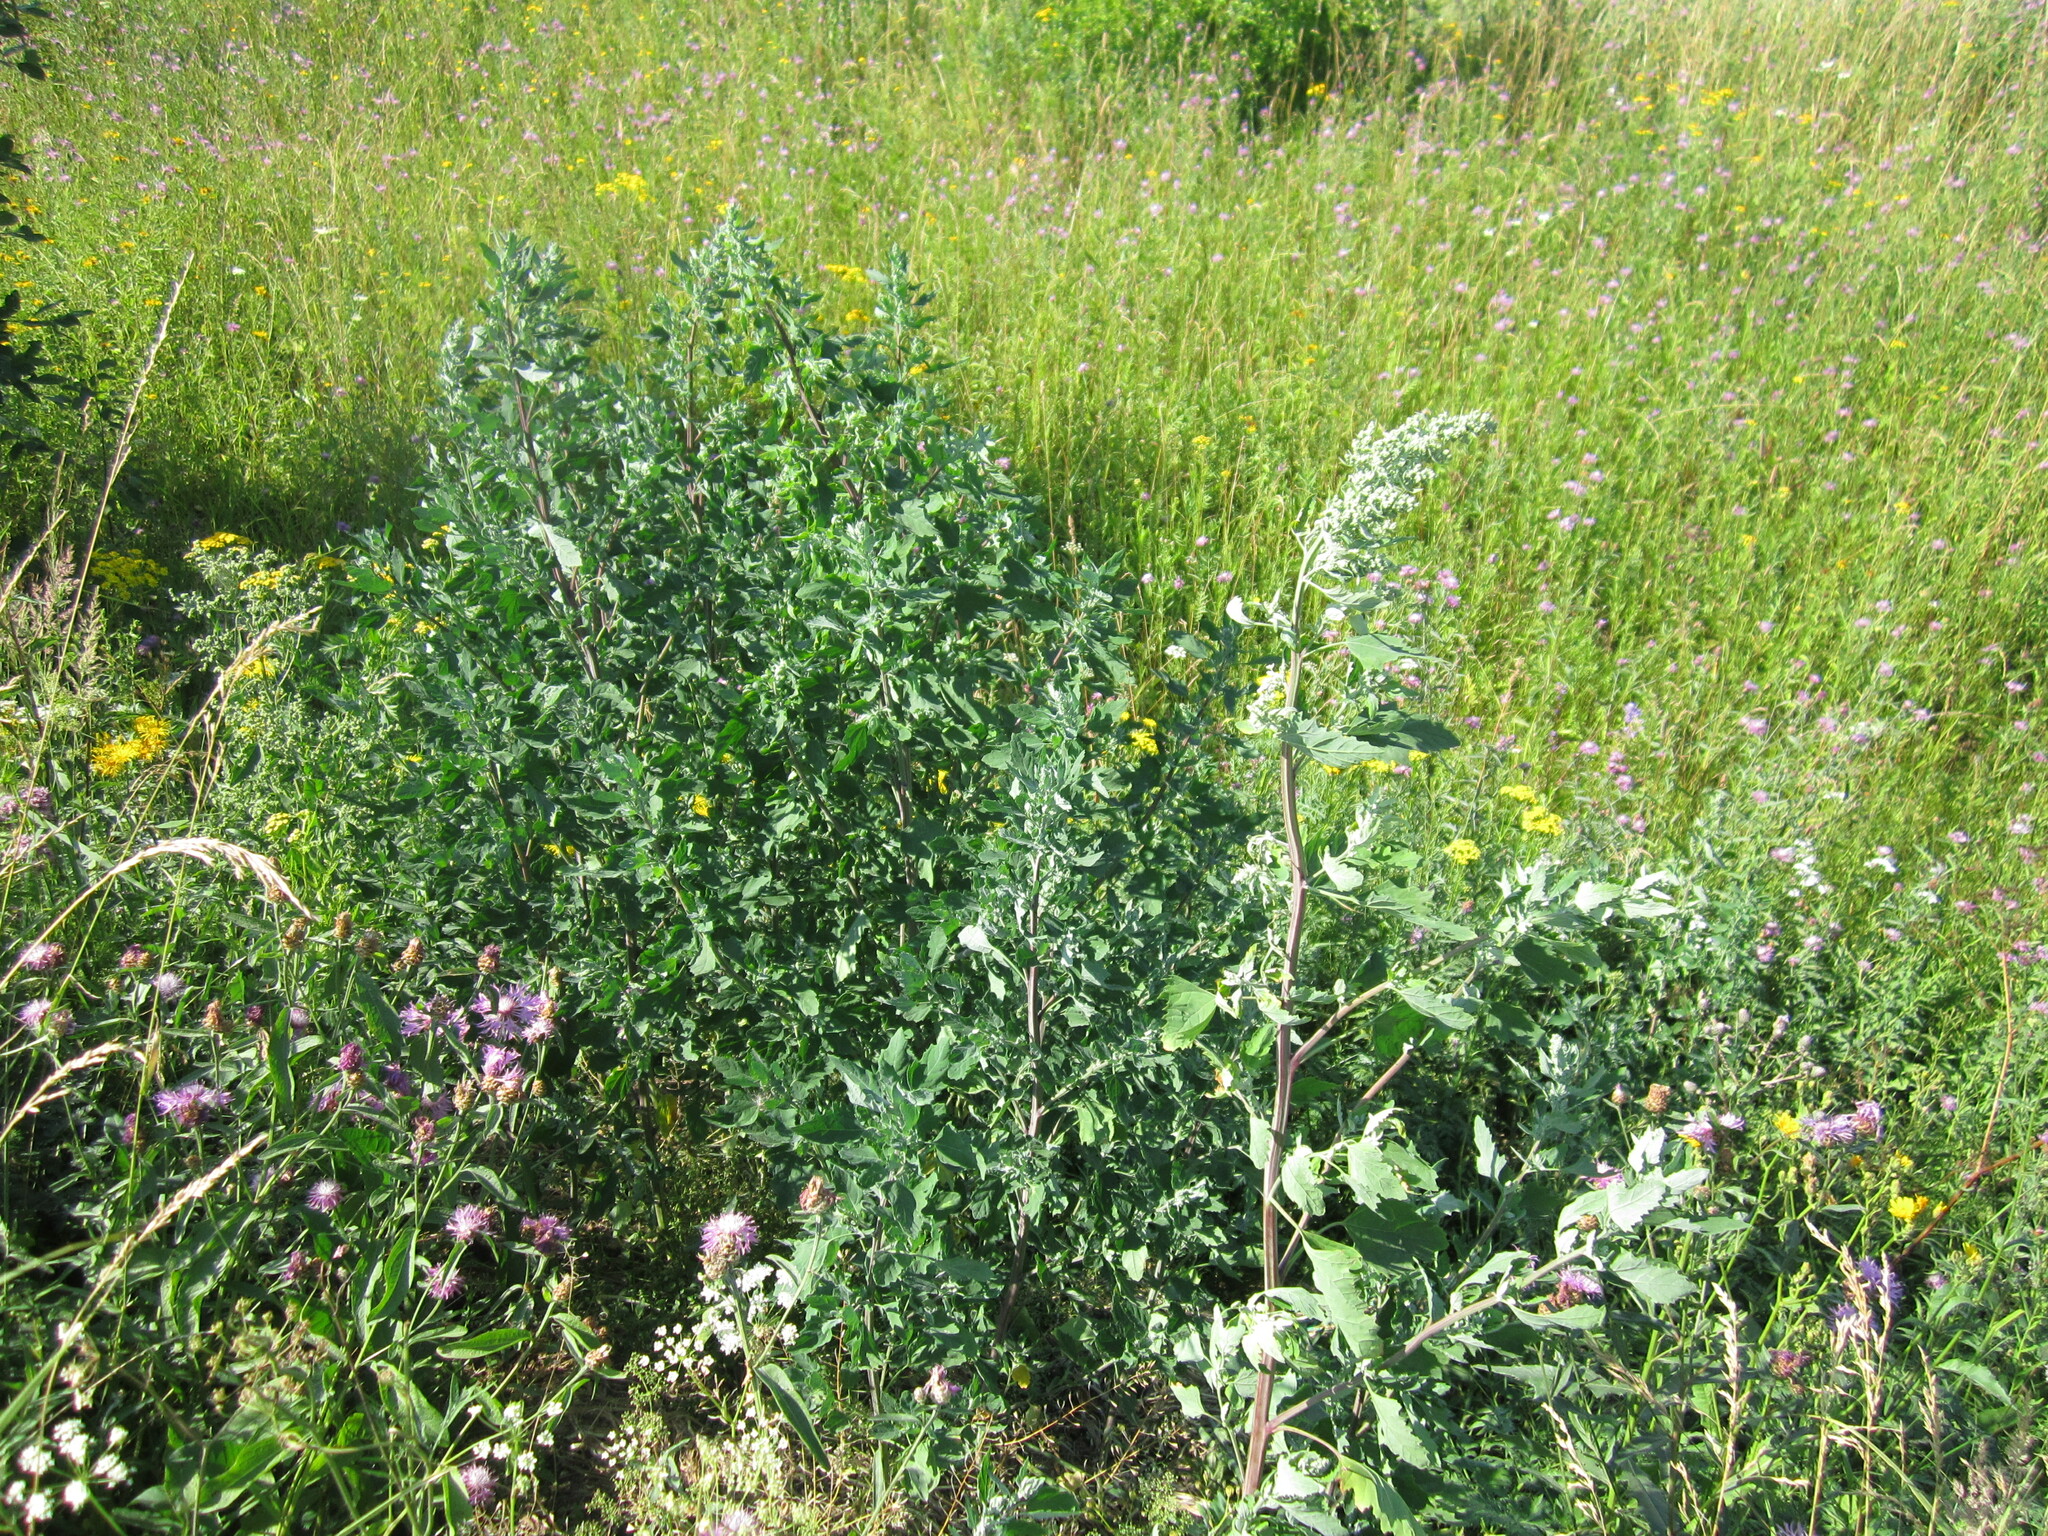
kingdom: Plantae
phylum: Tracheophyta
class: Magnoliopsida
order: Caryophyllales
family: Amaranthaceae
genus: Chenopodium
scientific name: Chenopodium album
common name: Fat-hen
